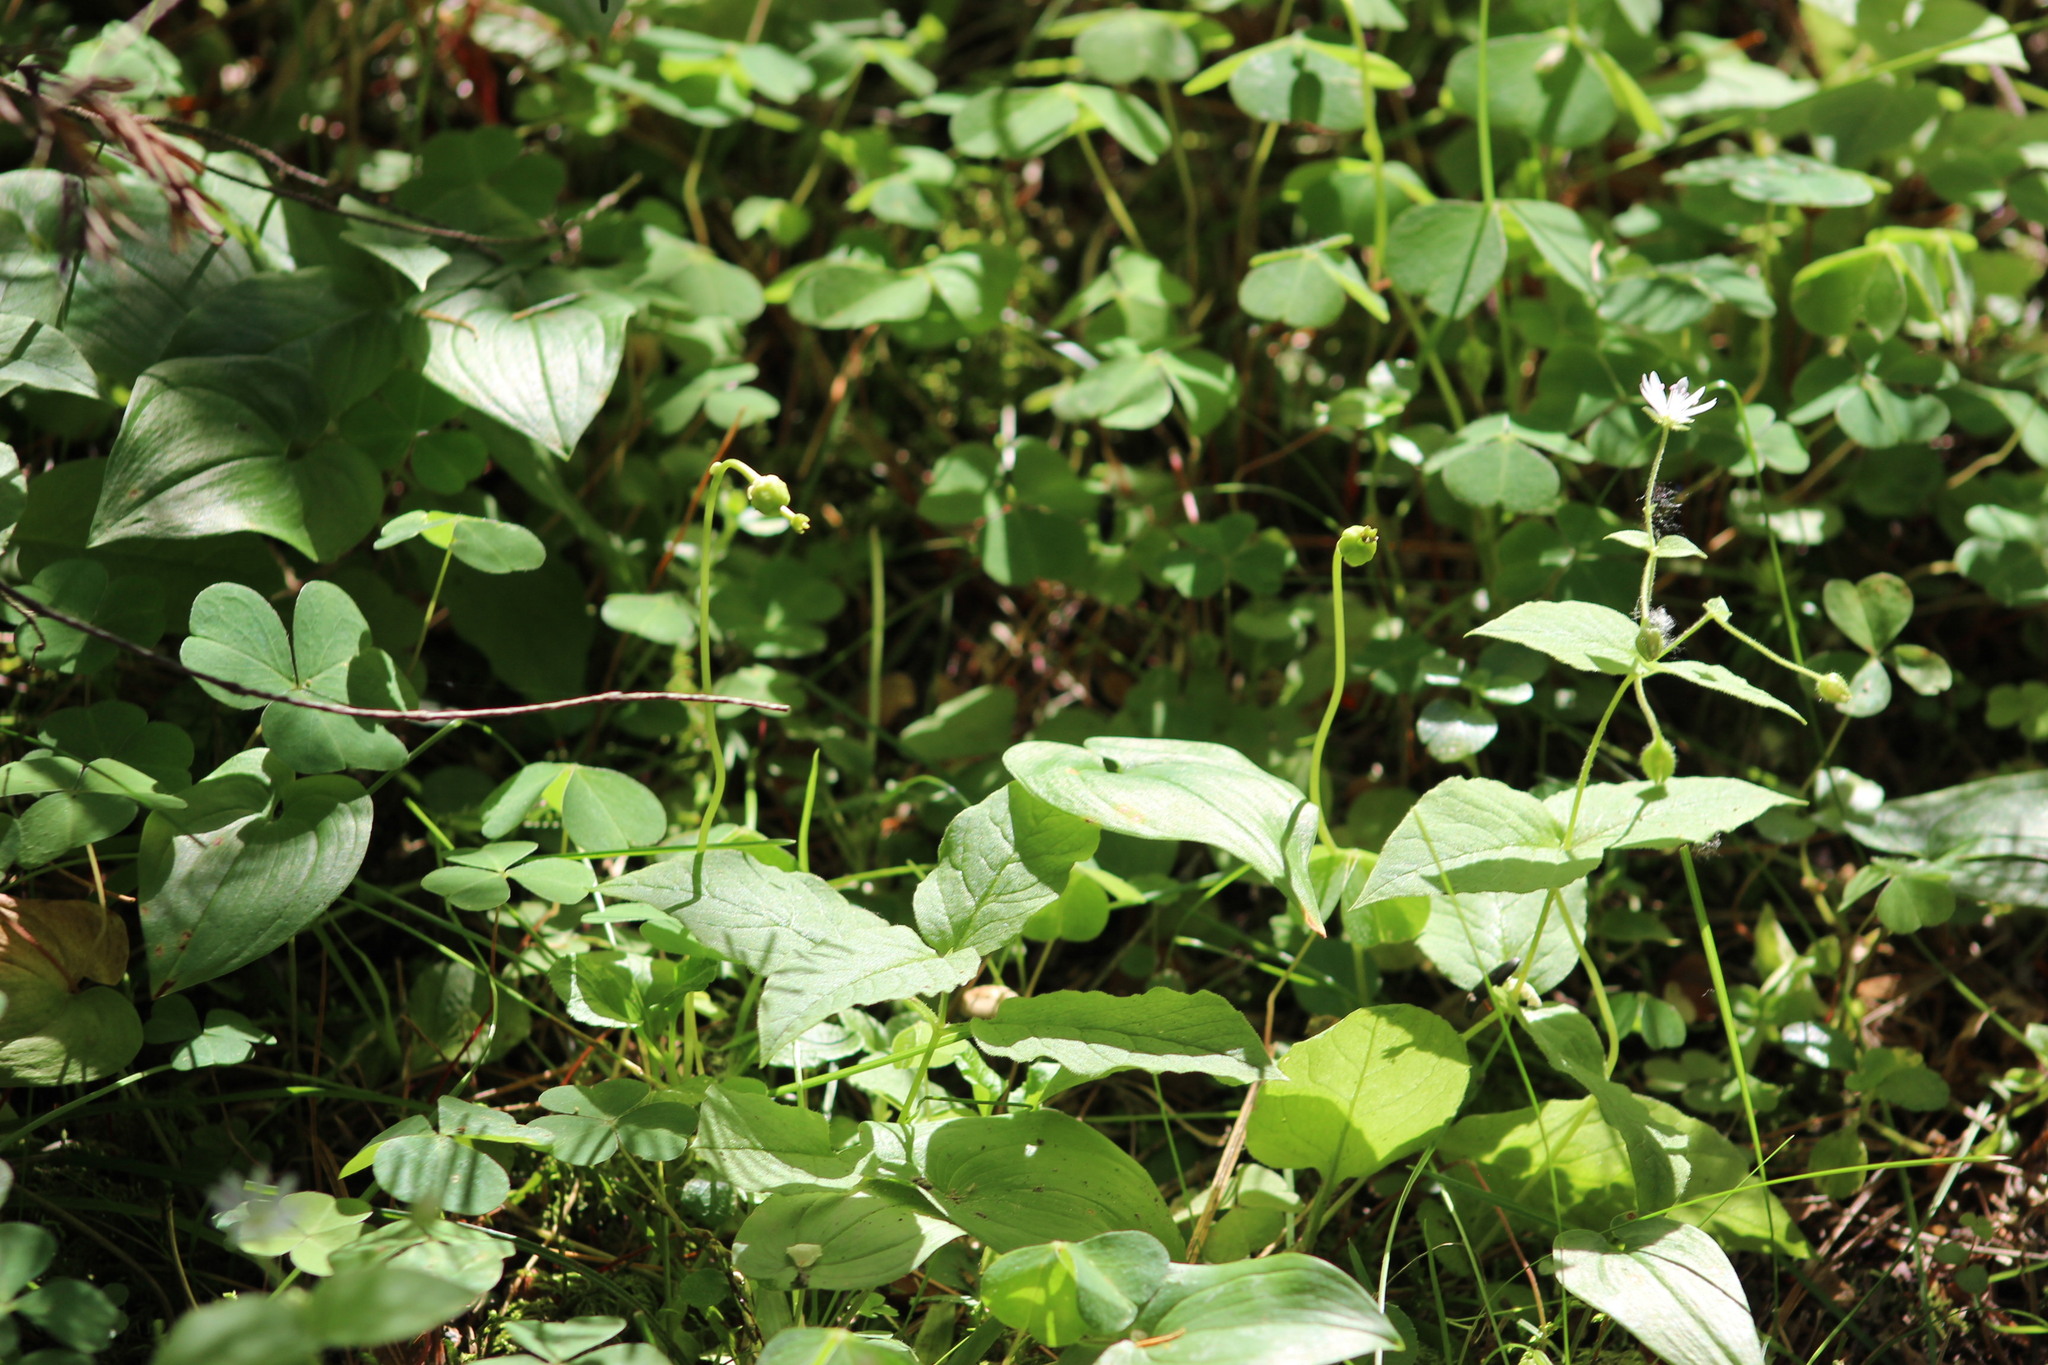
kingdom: Plantae
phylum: Tracheophyta
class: Magnoliopsida
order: Ericales
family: Ericaceae
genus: Moneses
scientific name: Moneses uniflora
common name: One-flowered wintergreen
